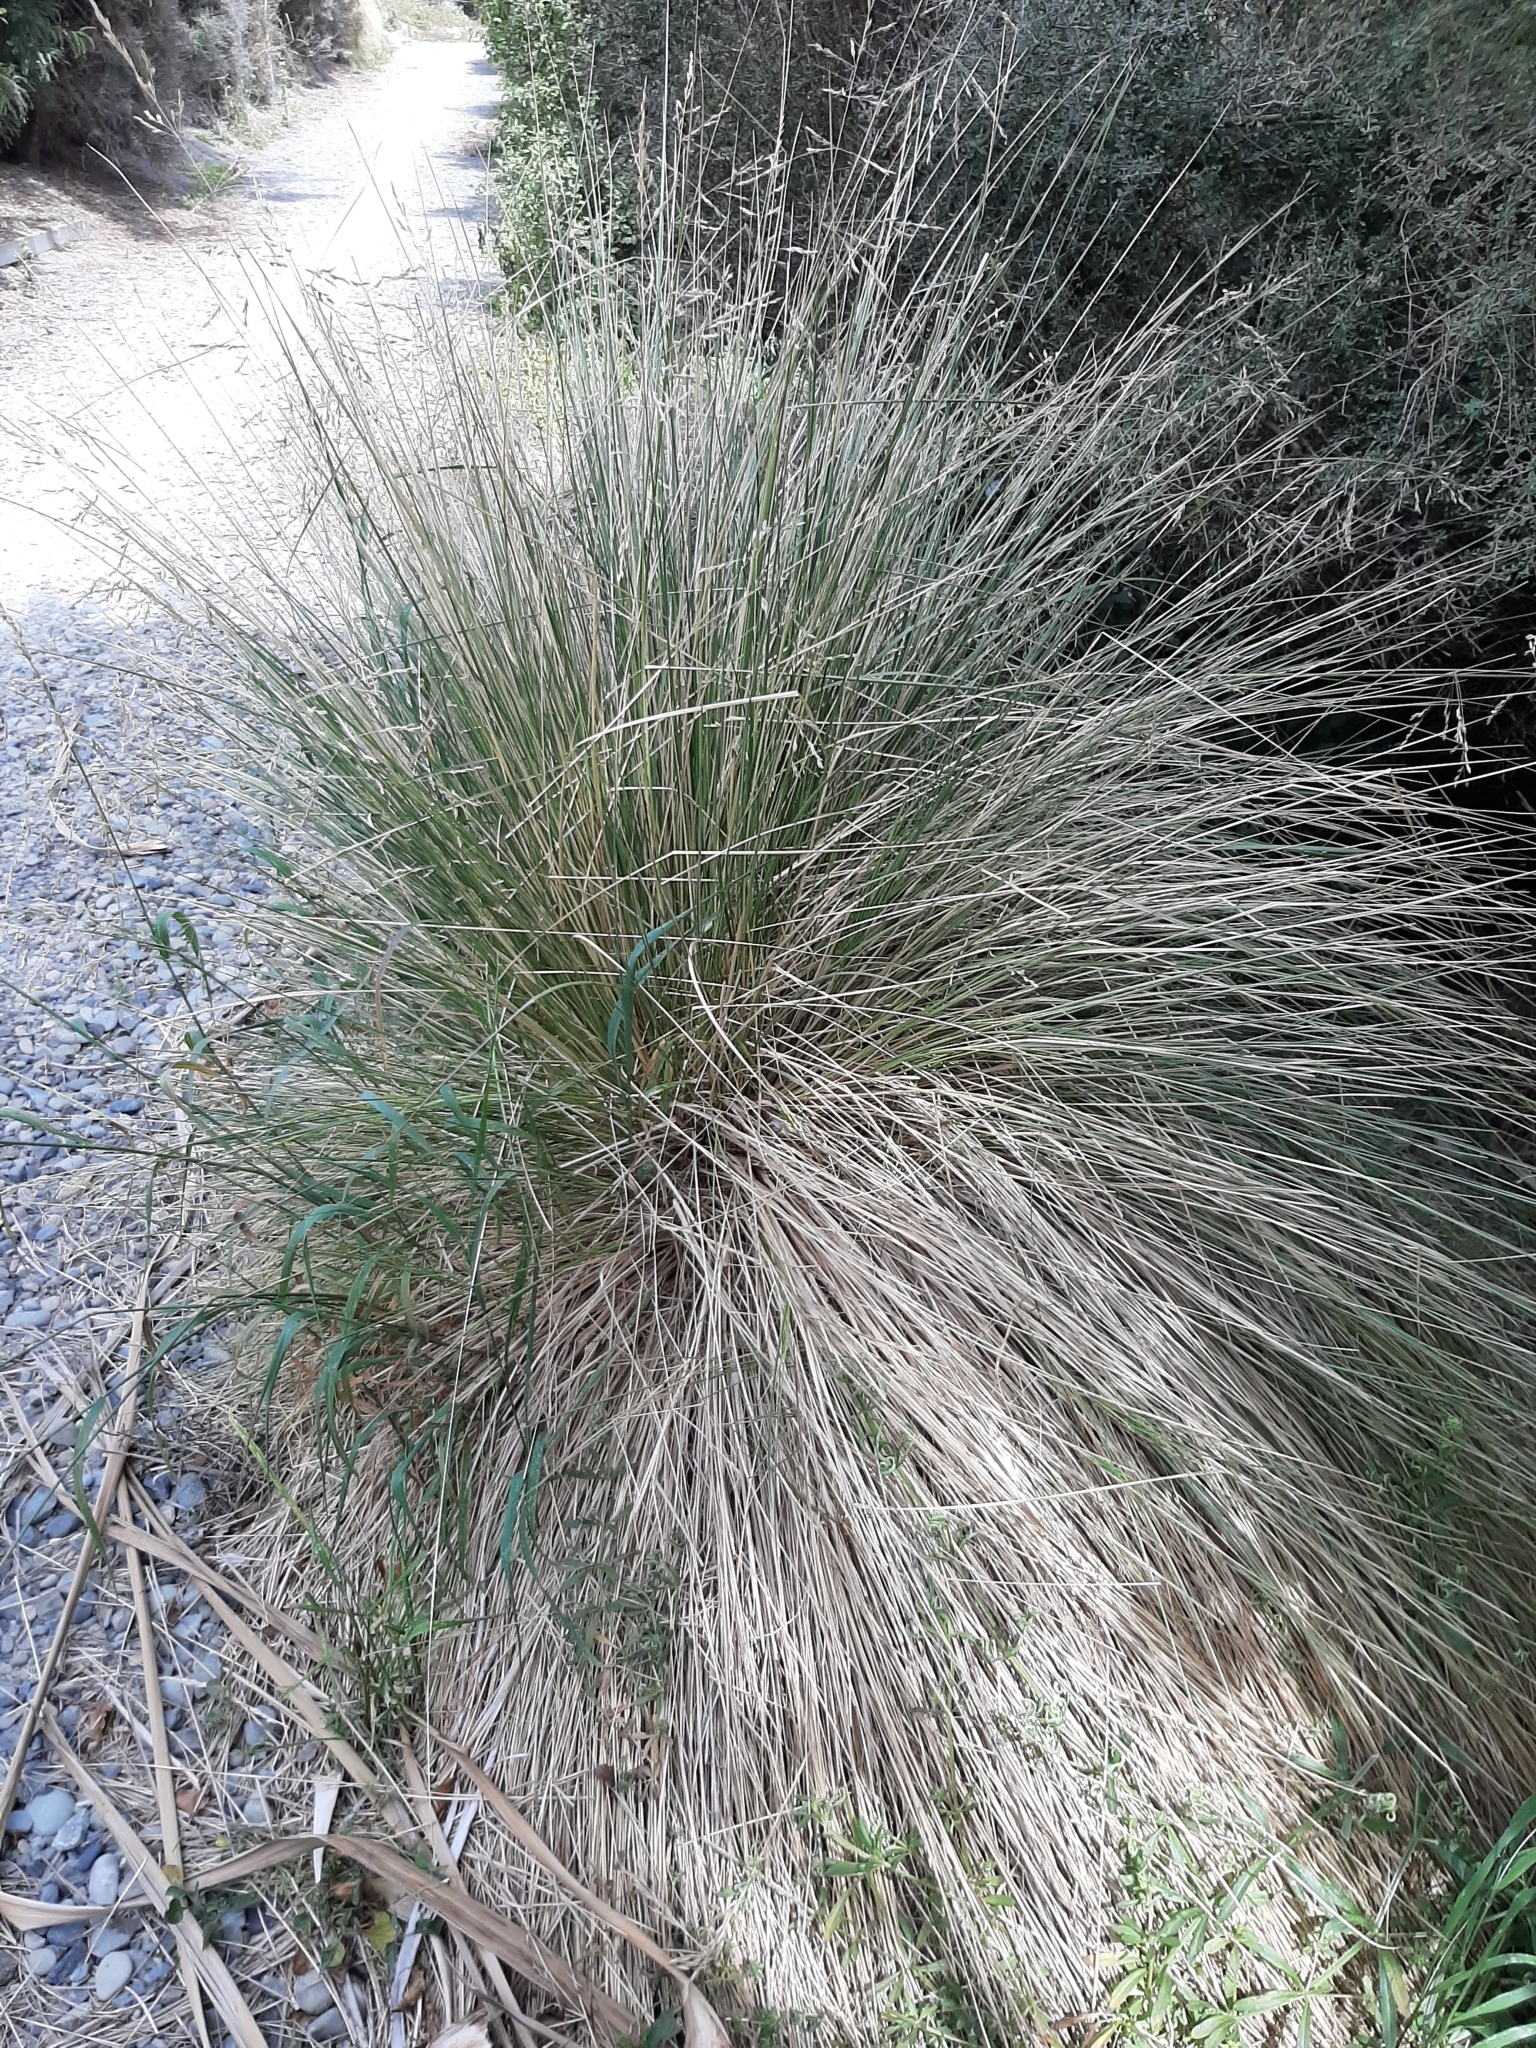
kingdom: Plantae
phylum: Tracheophyta
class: Liliopsida
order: Poales
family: Poaceae
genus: Poa
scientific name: Poa cita
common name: Silver tussock
